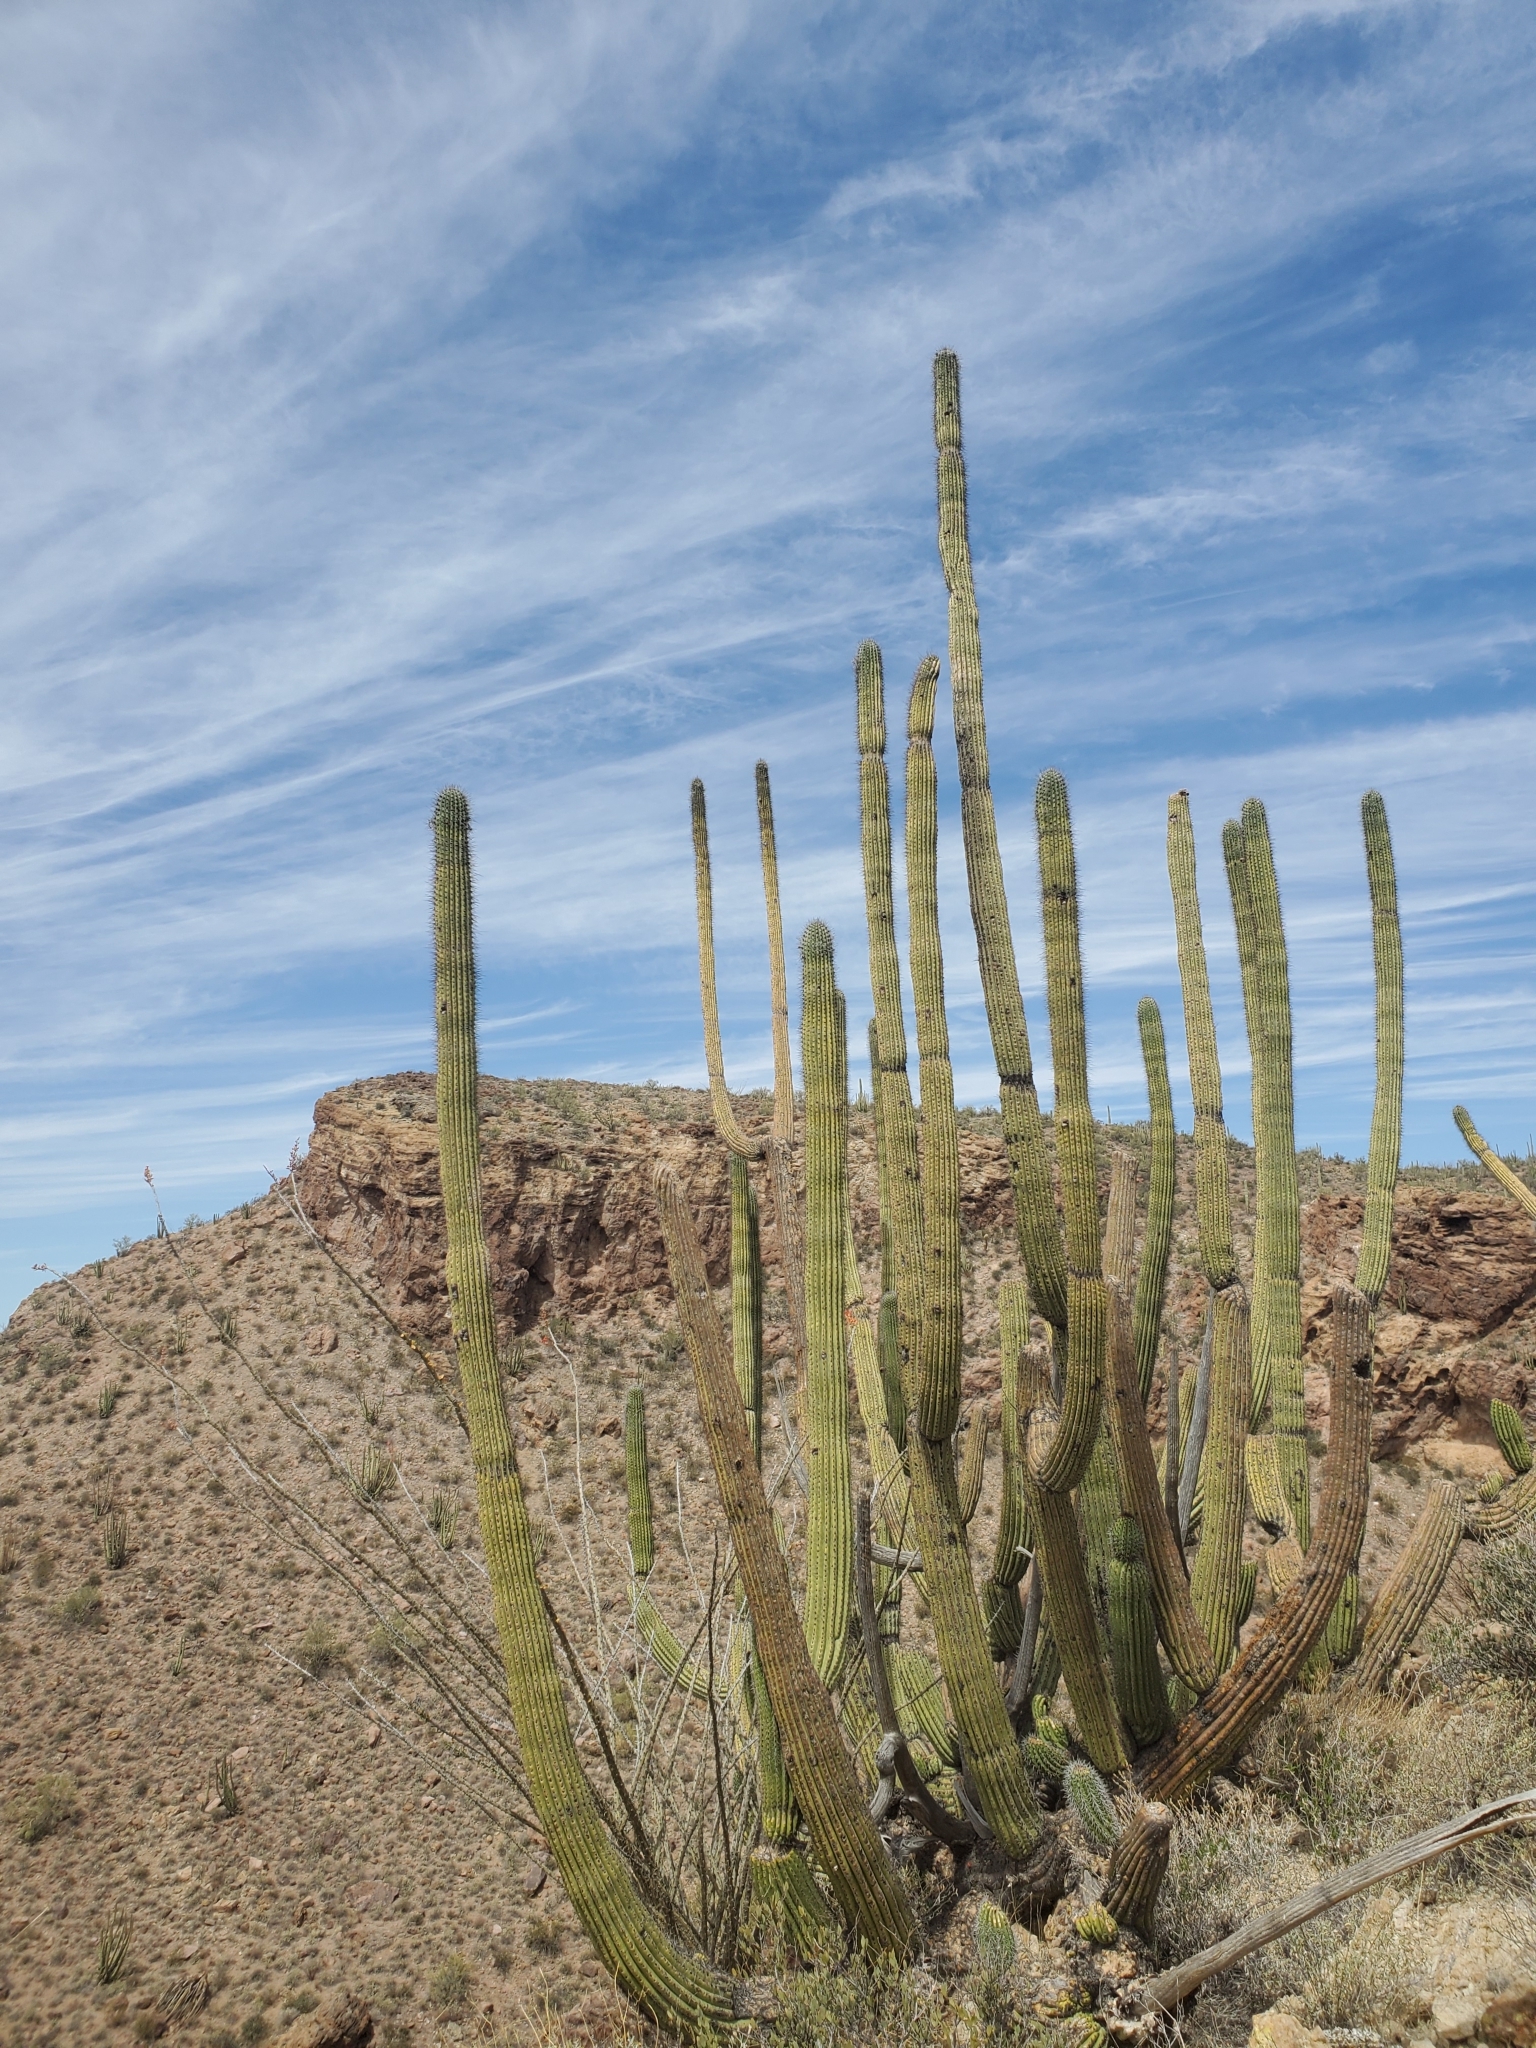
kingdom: Plantae
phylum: Tracheophyta
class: Magnoliopsida
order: Caryophyllales
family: Cactaceae
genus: Stenocereus
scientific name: Stenocereus thurberi
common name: Organ pipe cactus
